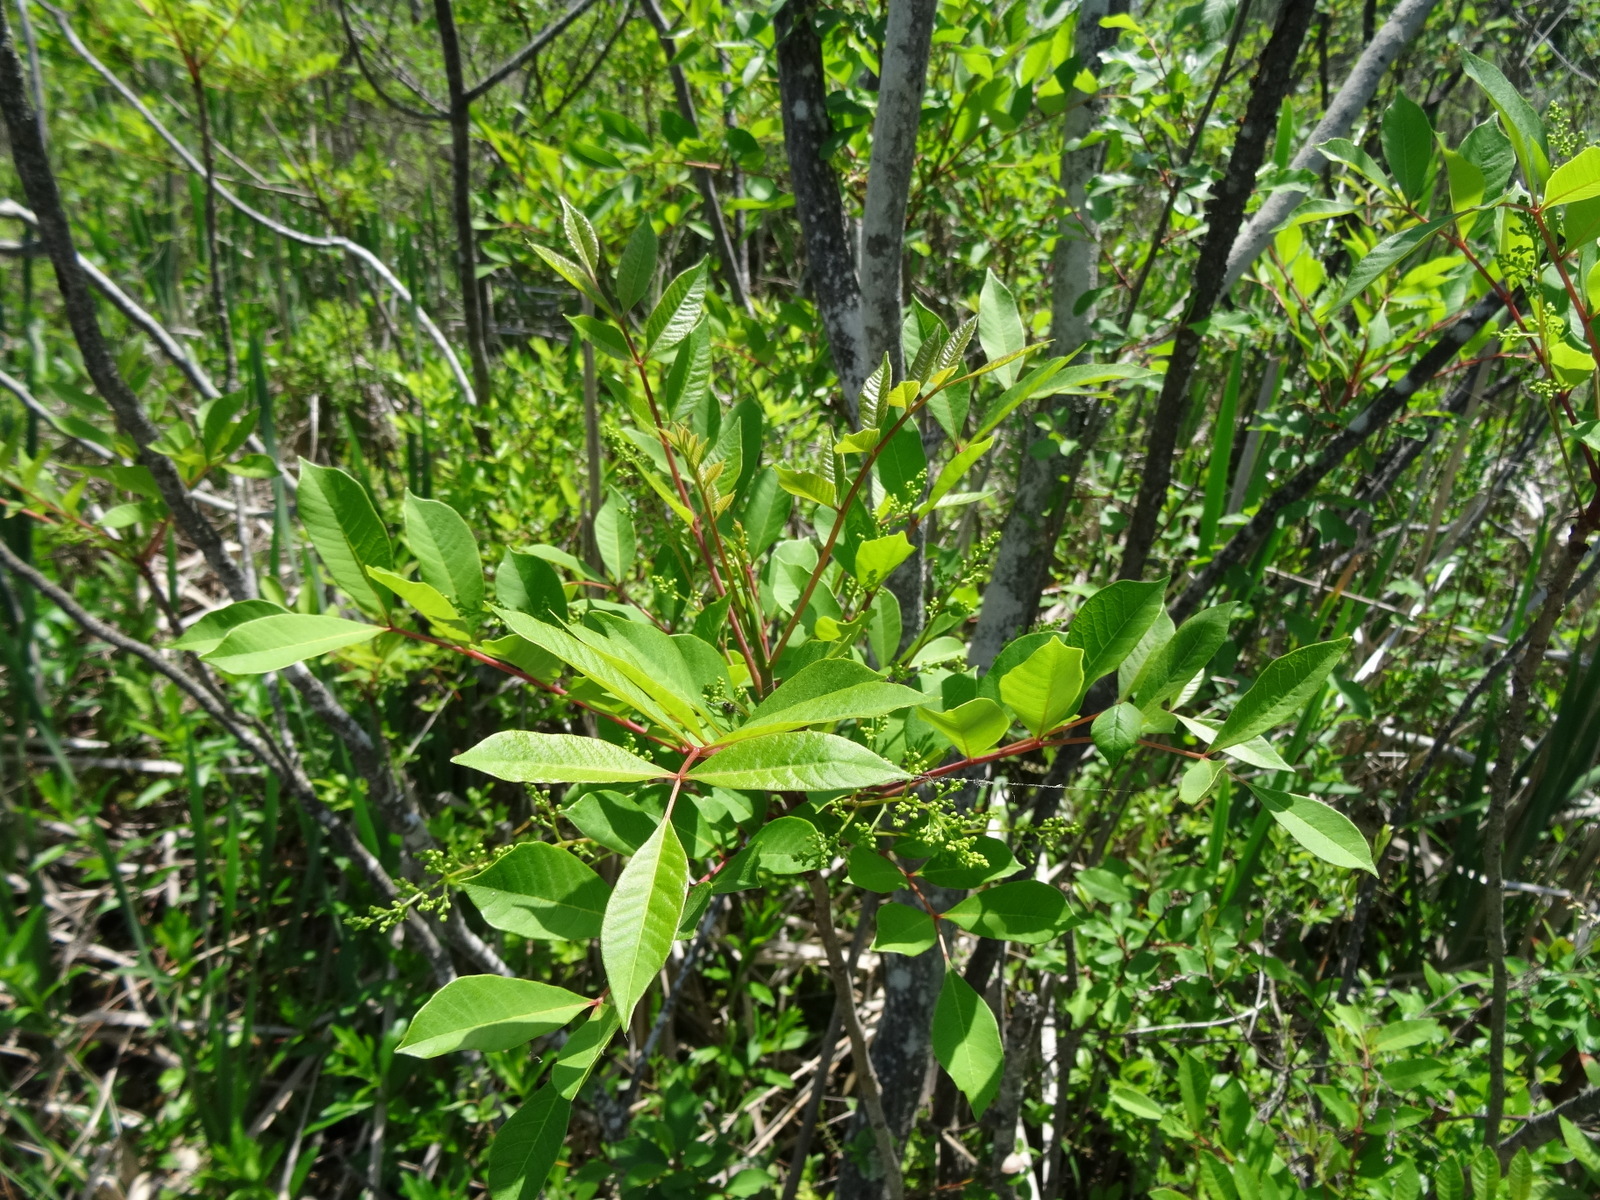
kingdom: Plantae
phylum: Tracheophyta
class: Magnoliopsida
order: Sapindales
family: Anacardiaceae
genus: Toxicodendron
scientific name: Toxicodendron vernix
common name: Poison sumac
